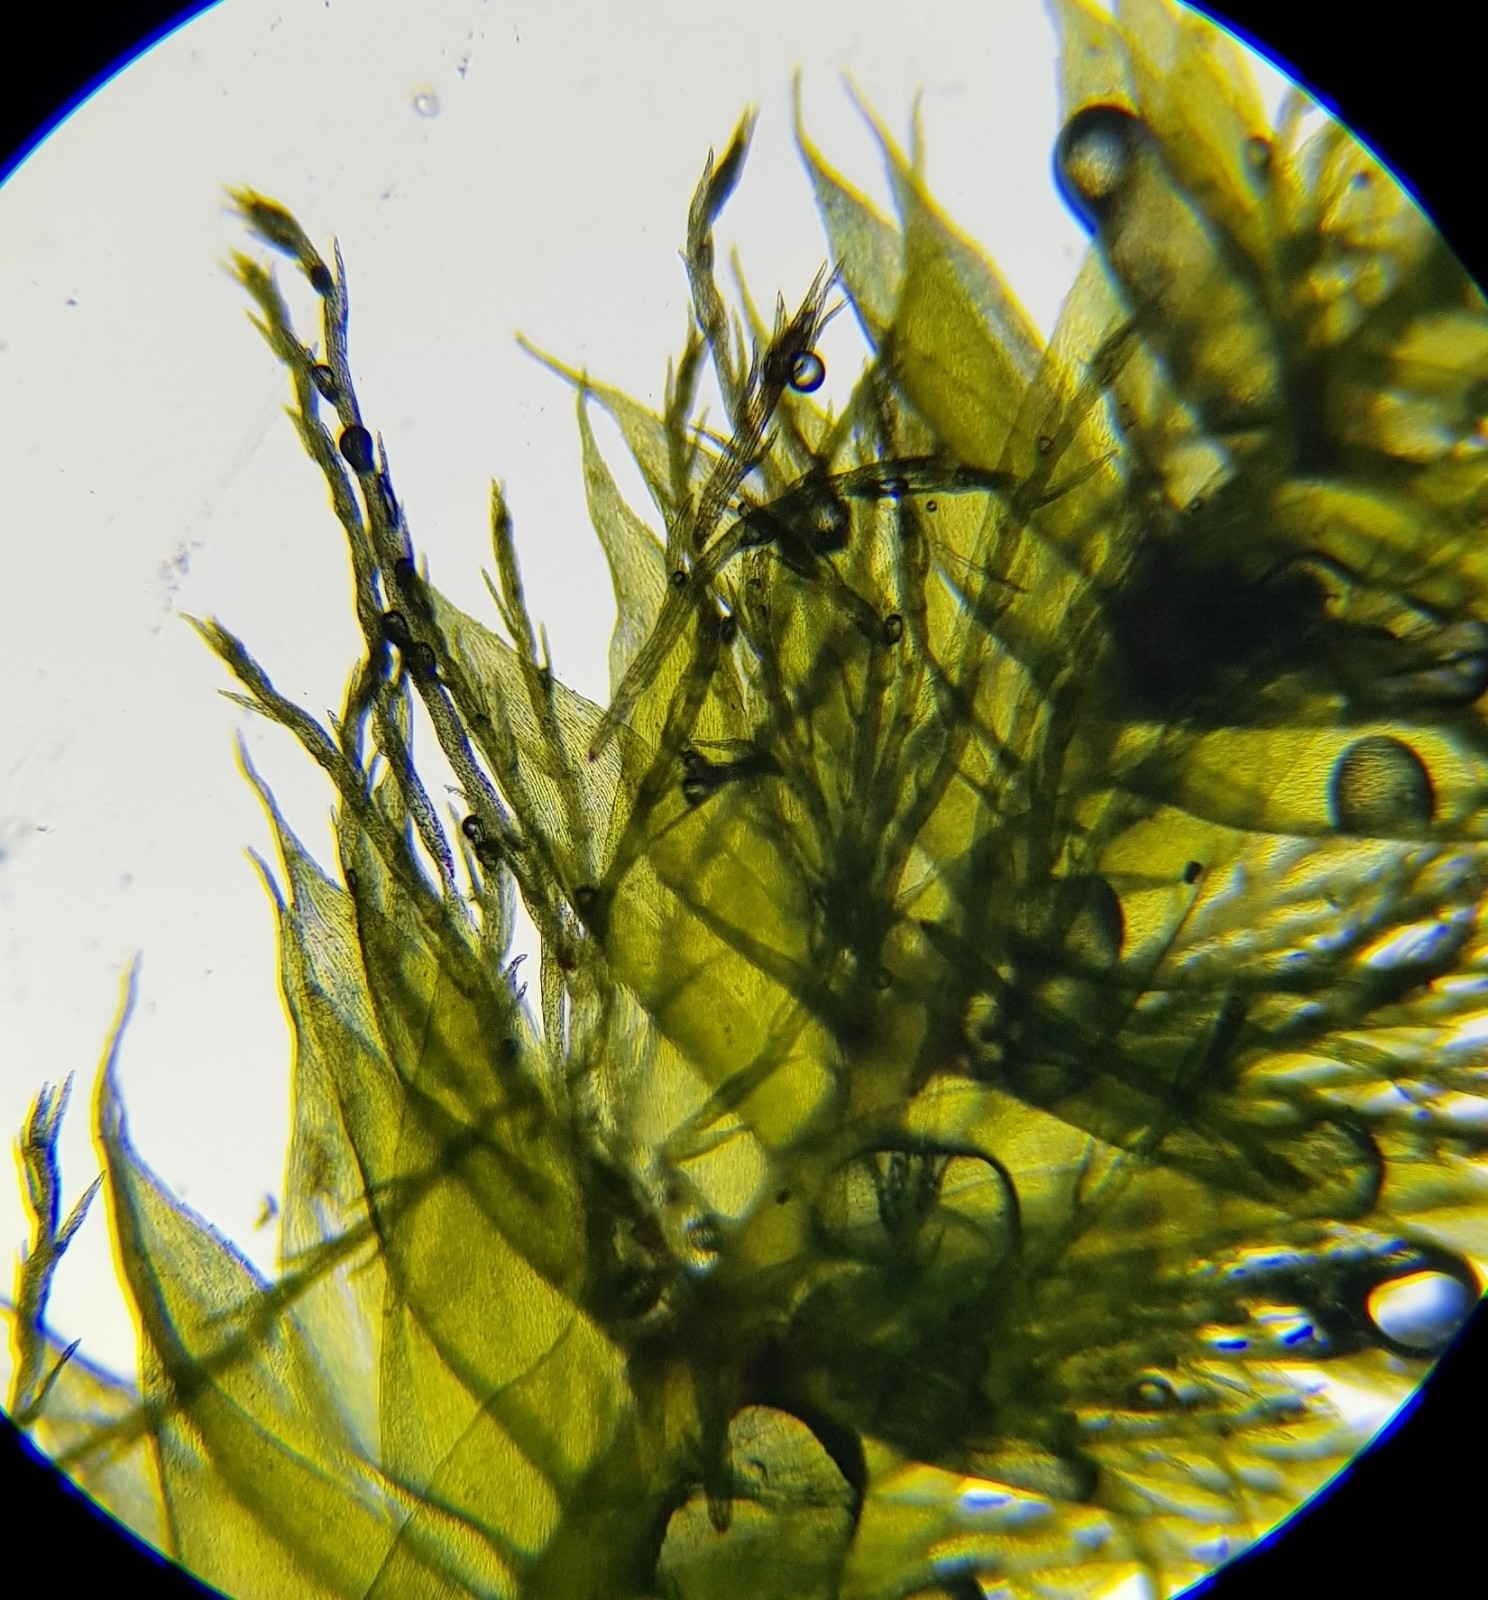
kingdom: Plantae
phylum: Bryophyta
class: Bryopsida
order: Hypnales
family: Plagiotheciaceae
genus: Pseudotaxiphyllum
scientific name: Pseudotaxiphyllum elegans
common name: Elegant silk moss
